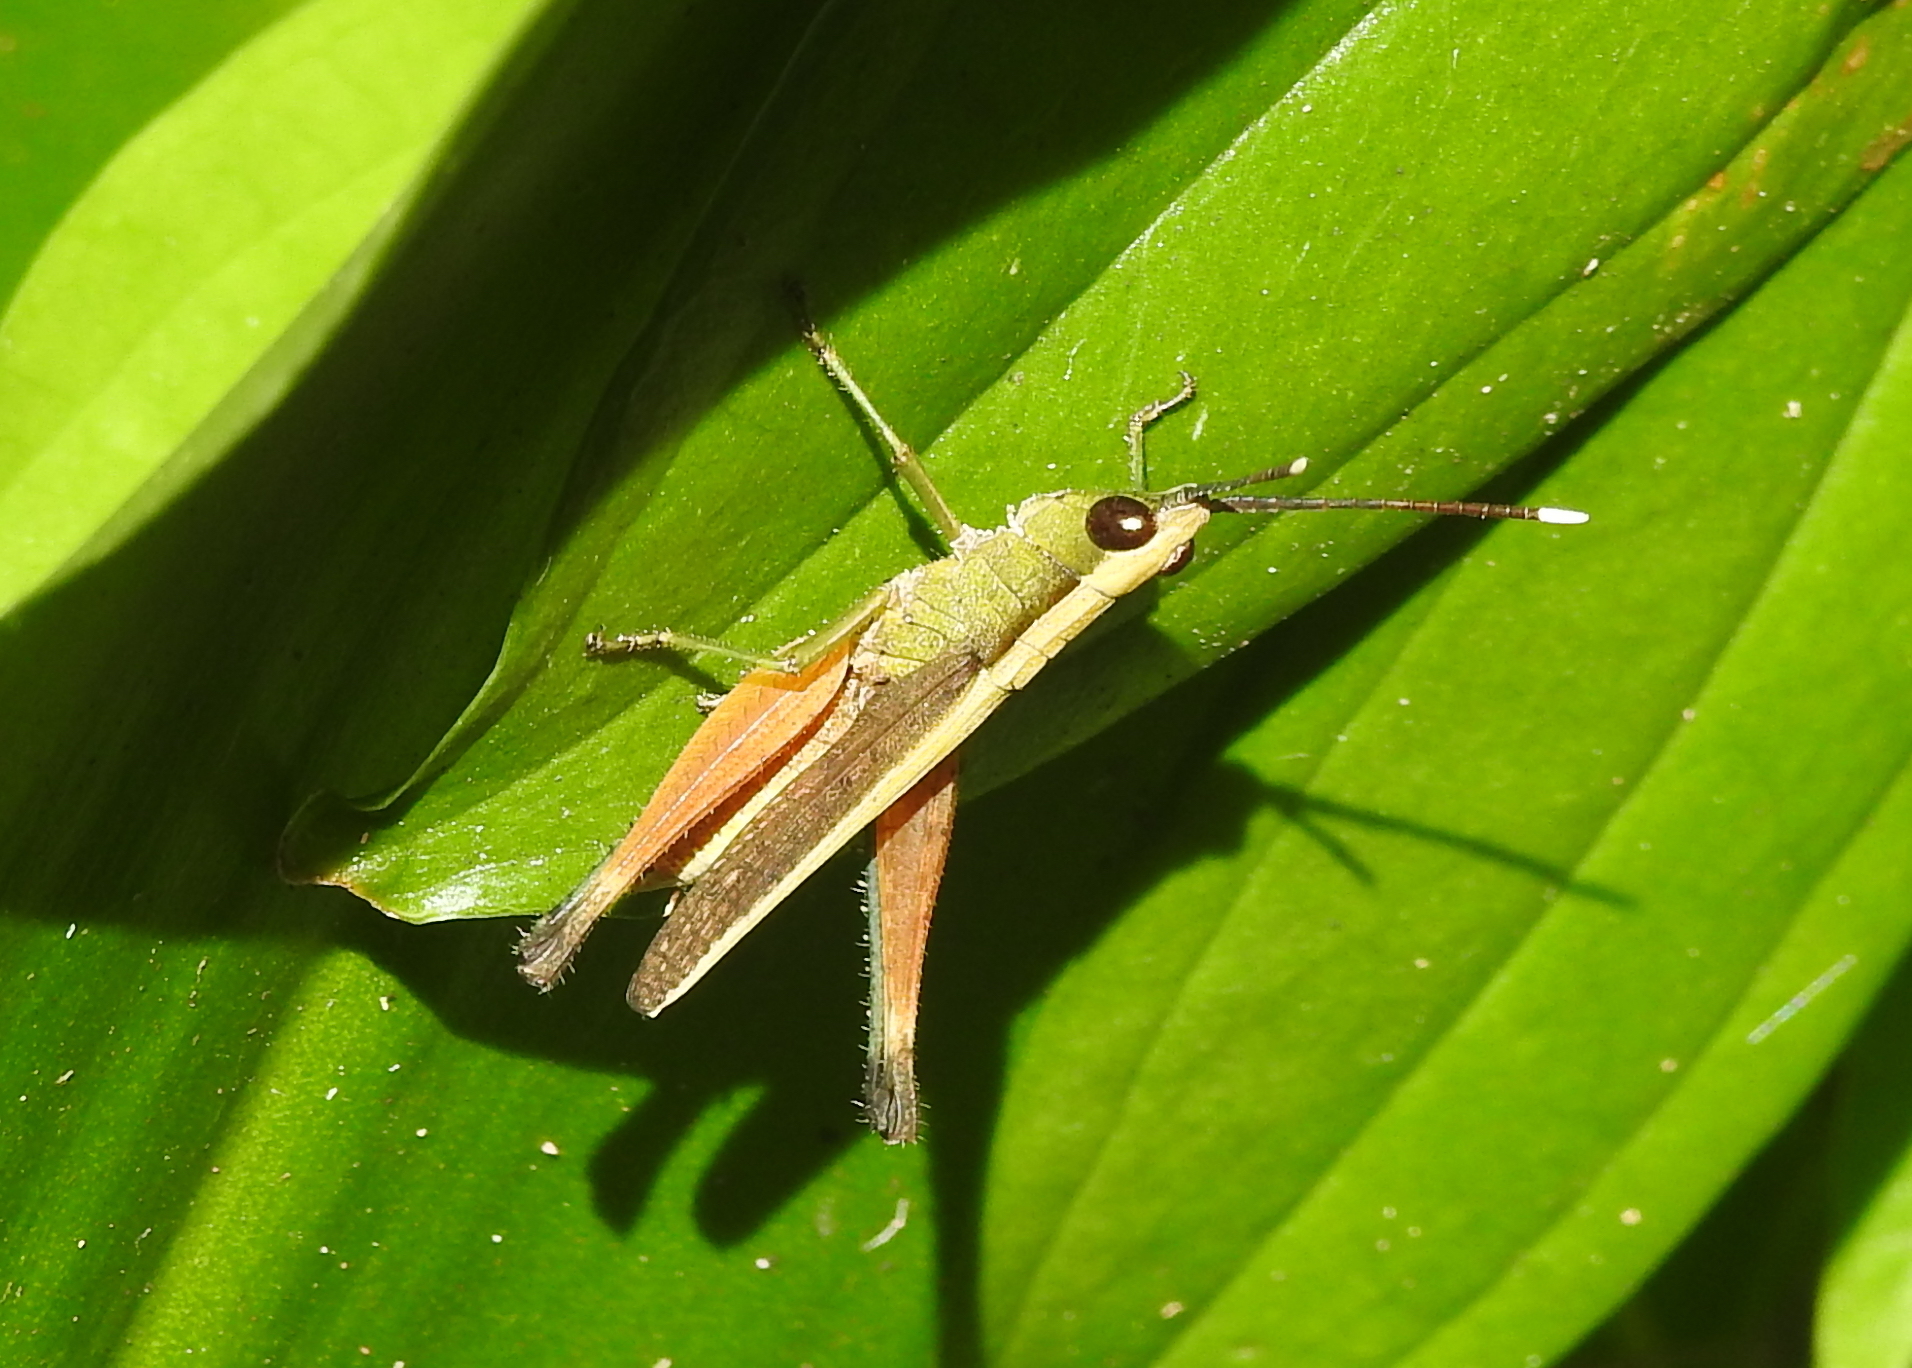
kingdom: Animalia
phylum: Arthropoda
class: Insecta
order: Orthoptera
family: Acrididae
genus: Phlaeoba
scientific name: Phlaeoba antennata
